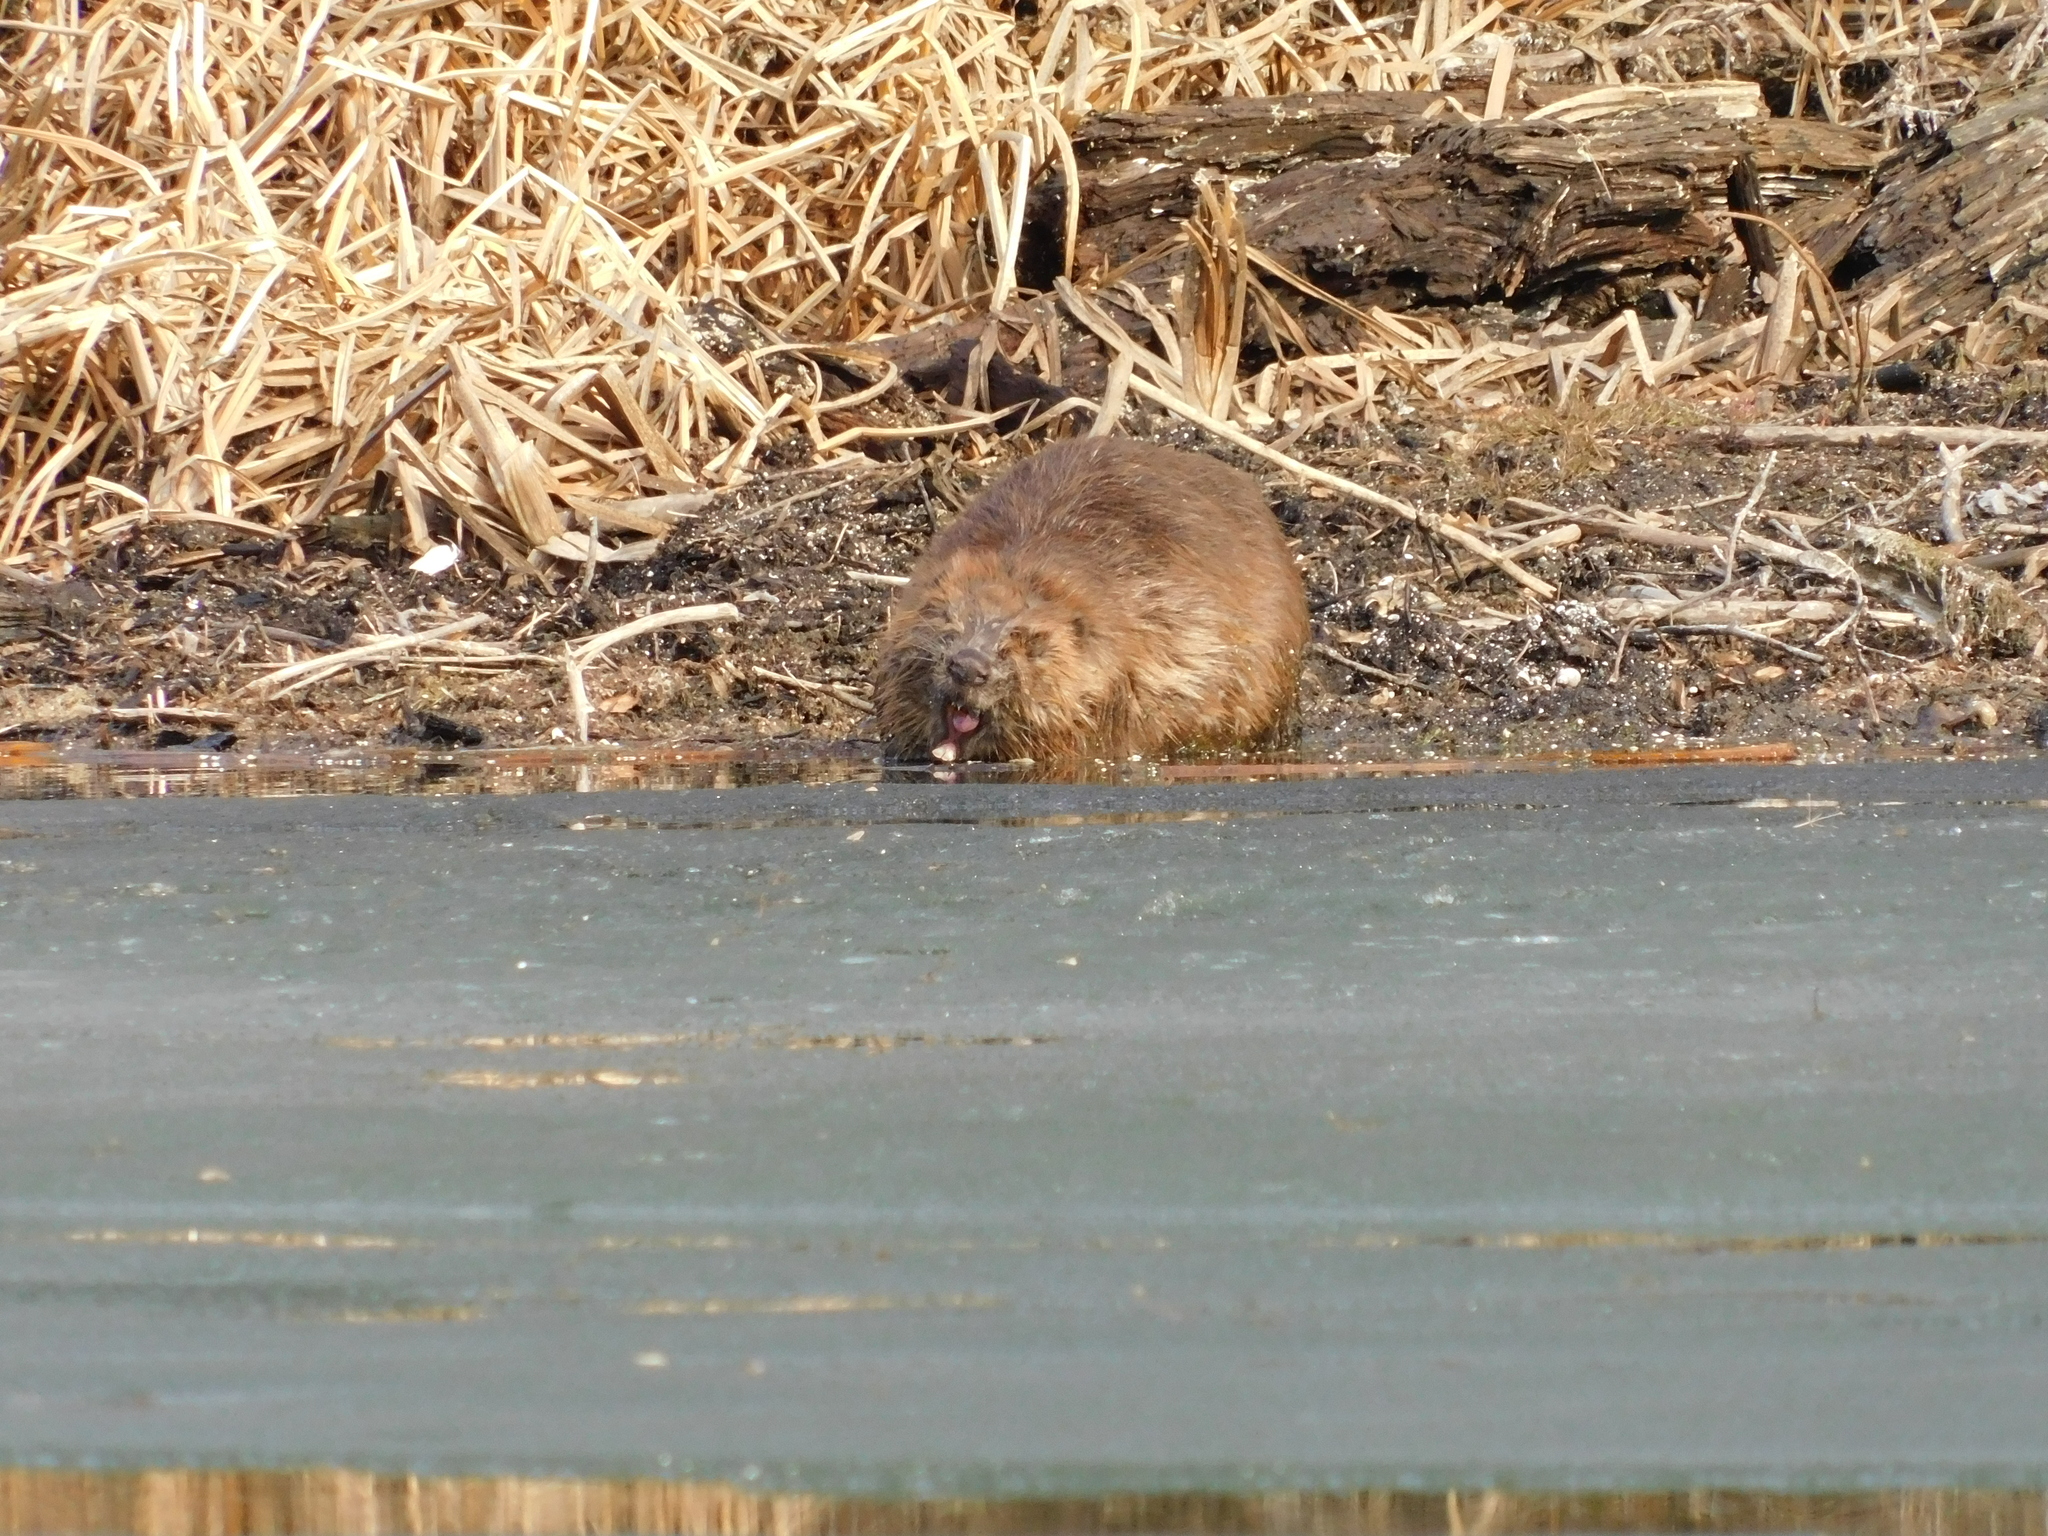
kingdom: Animalia
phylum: Chordata
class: Mammalia
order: Rodentia
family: Castoridae
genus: Castor
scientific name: Castor fiber
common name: Eurasian beaver
